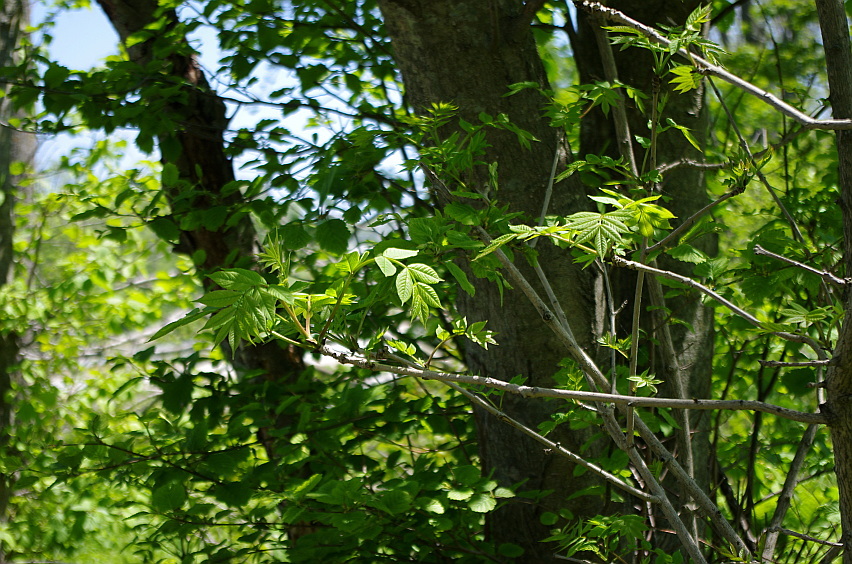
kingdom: Plantae
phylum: Tracheophyta
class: Magnoliopsida
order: Lamiales
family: Oleaceae
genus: Fraxinus
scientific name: Fraxinus mandshurica
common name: Manchurian ash
